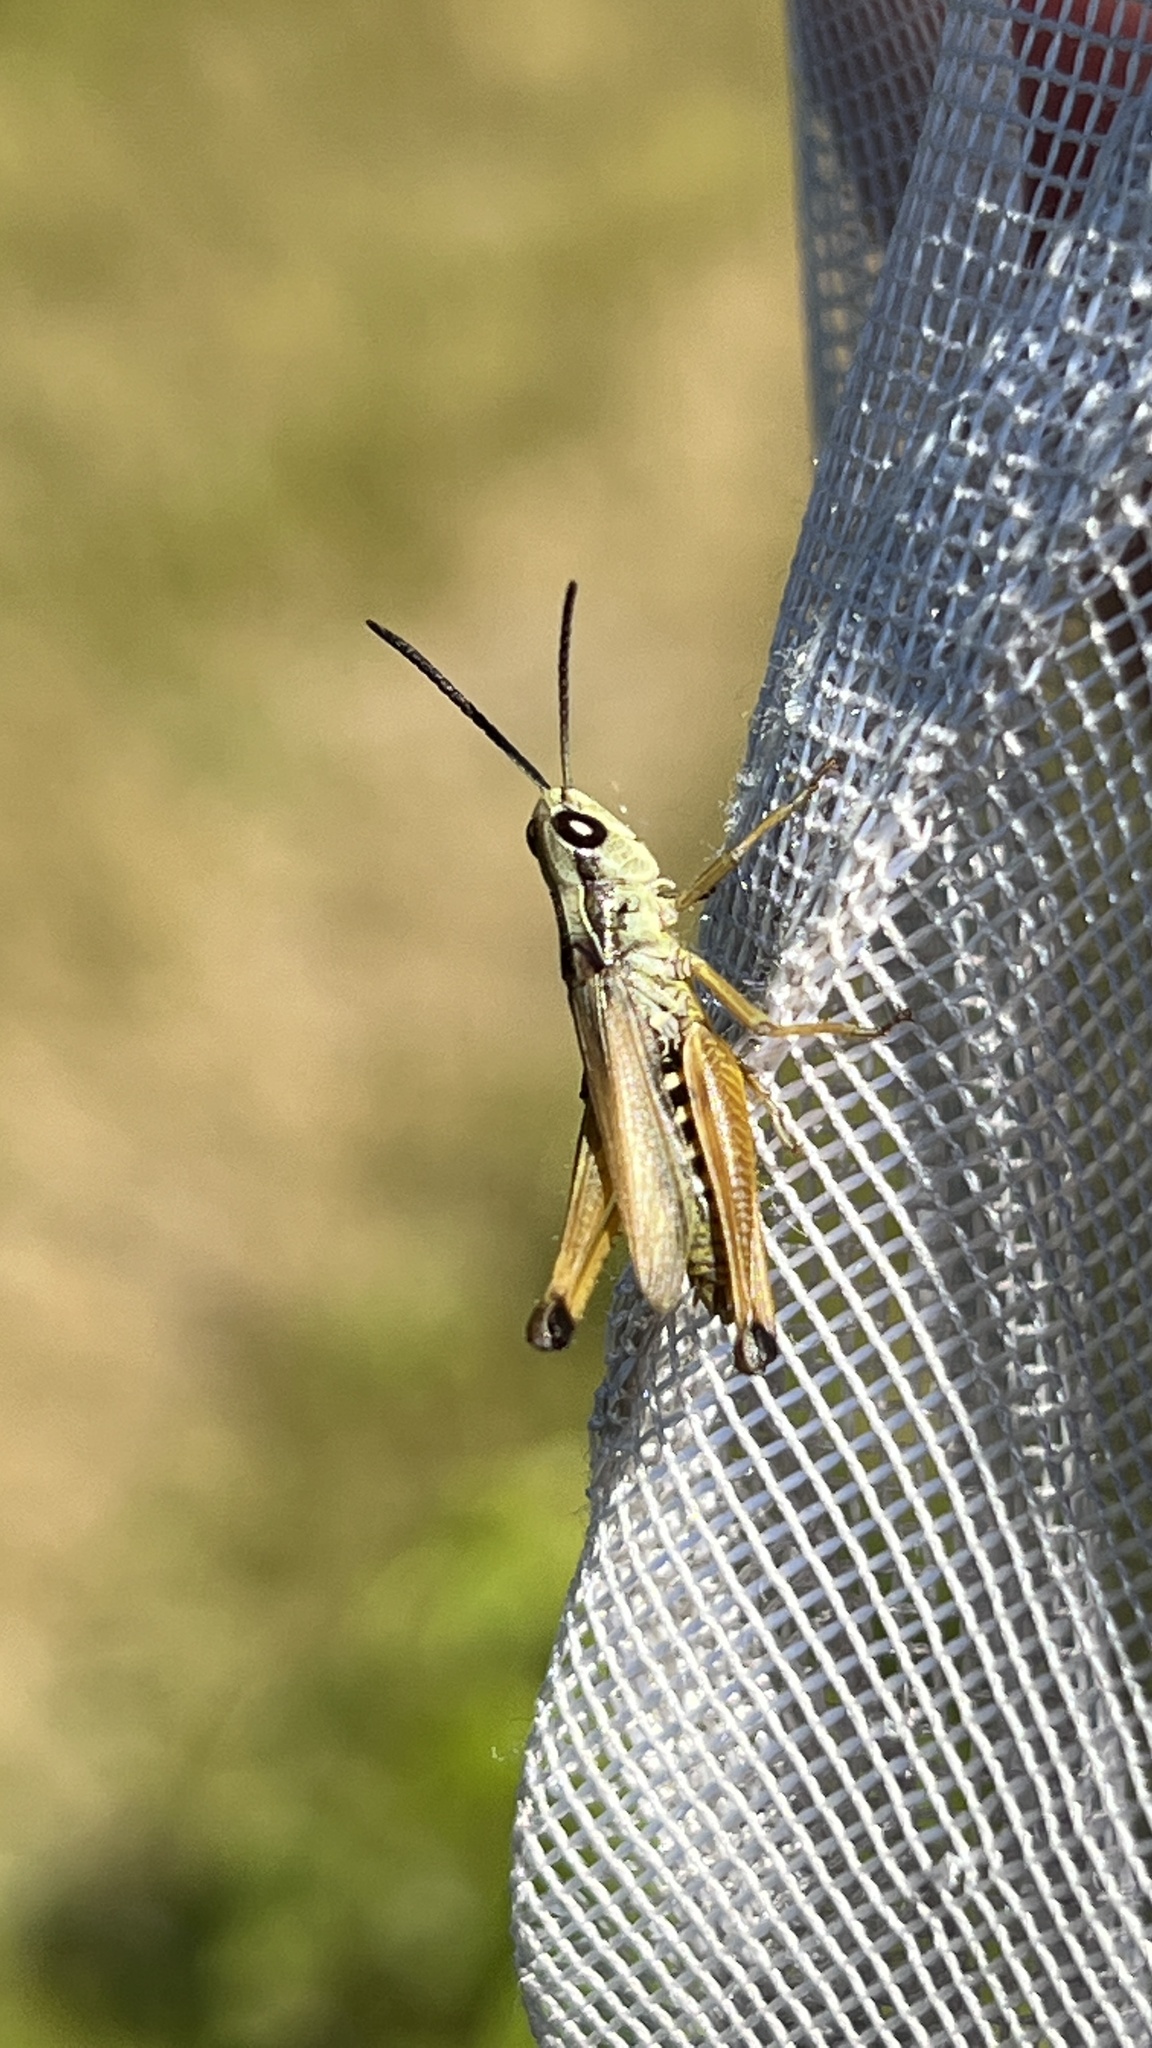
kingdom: Animalia
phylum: Arthropoda
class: Insecta
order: Orthoptera
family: Acrididae
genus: Pseudochorthippus
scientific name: Pseudochorthippus curtipennis
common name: Marsh meadow grasshopper
